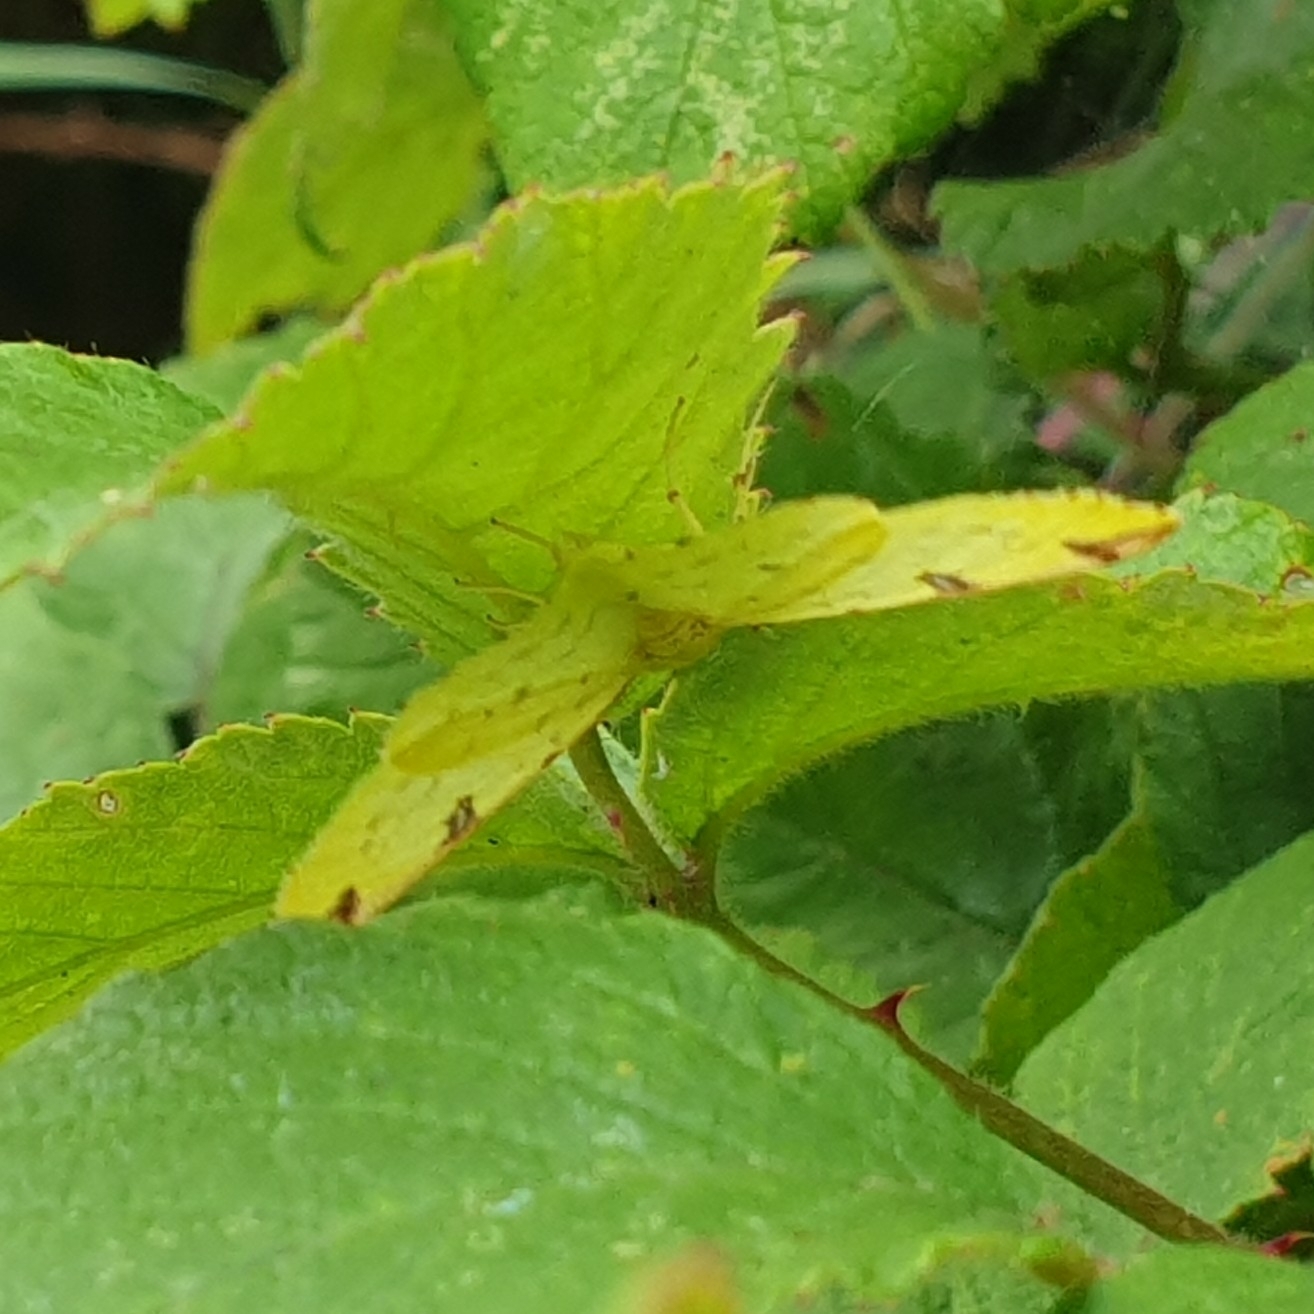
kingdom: Animalia
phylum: Arthropoda
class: Insecta
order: Lepidoptera
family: Geometridae
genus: Opisthograptis
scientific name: Opisthograptis luteolata
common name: Brimstone moth
